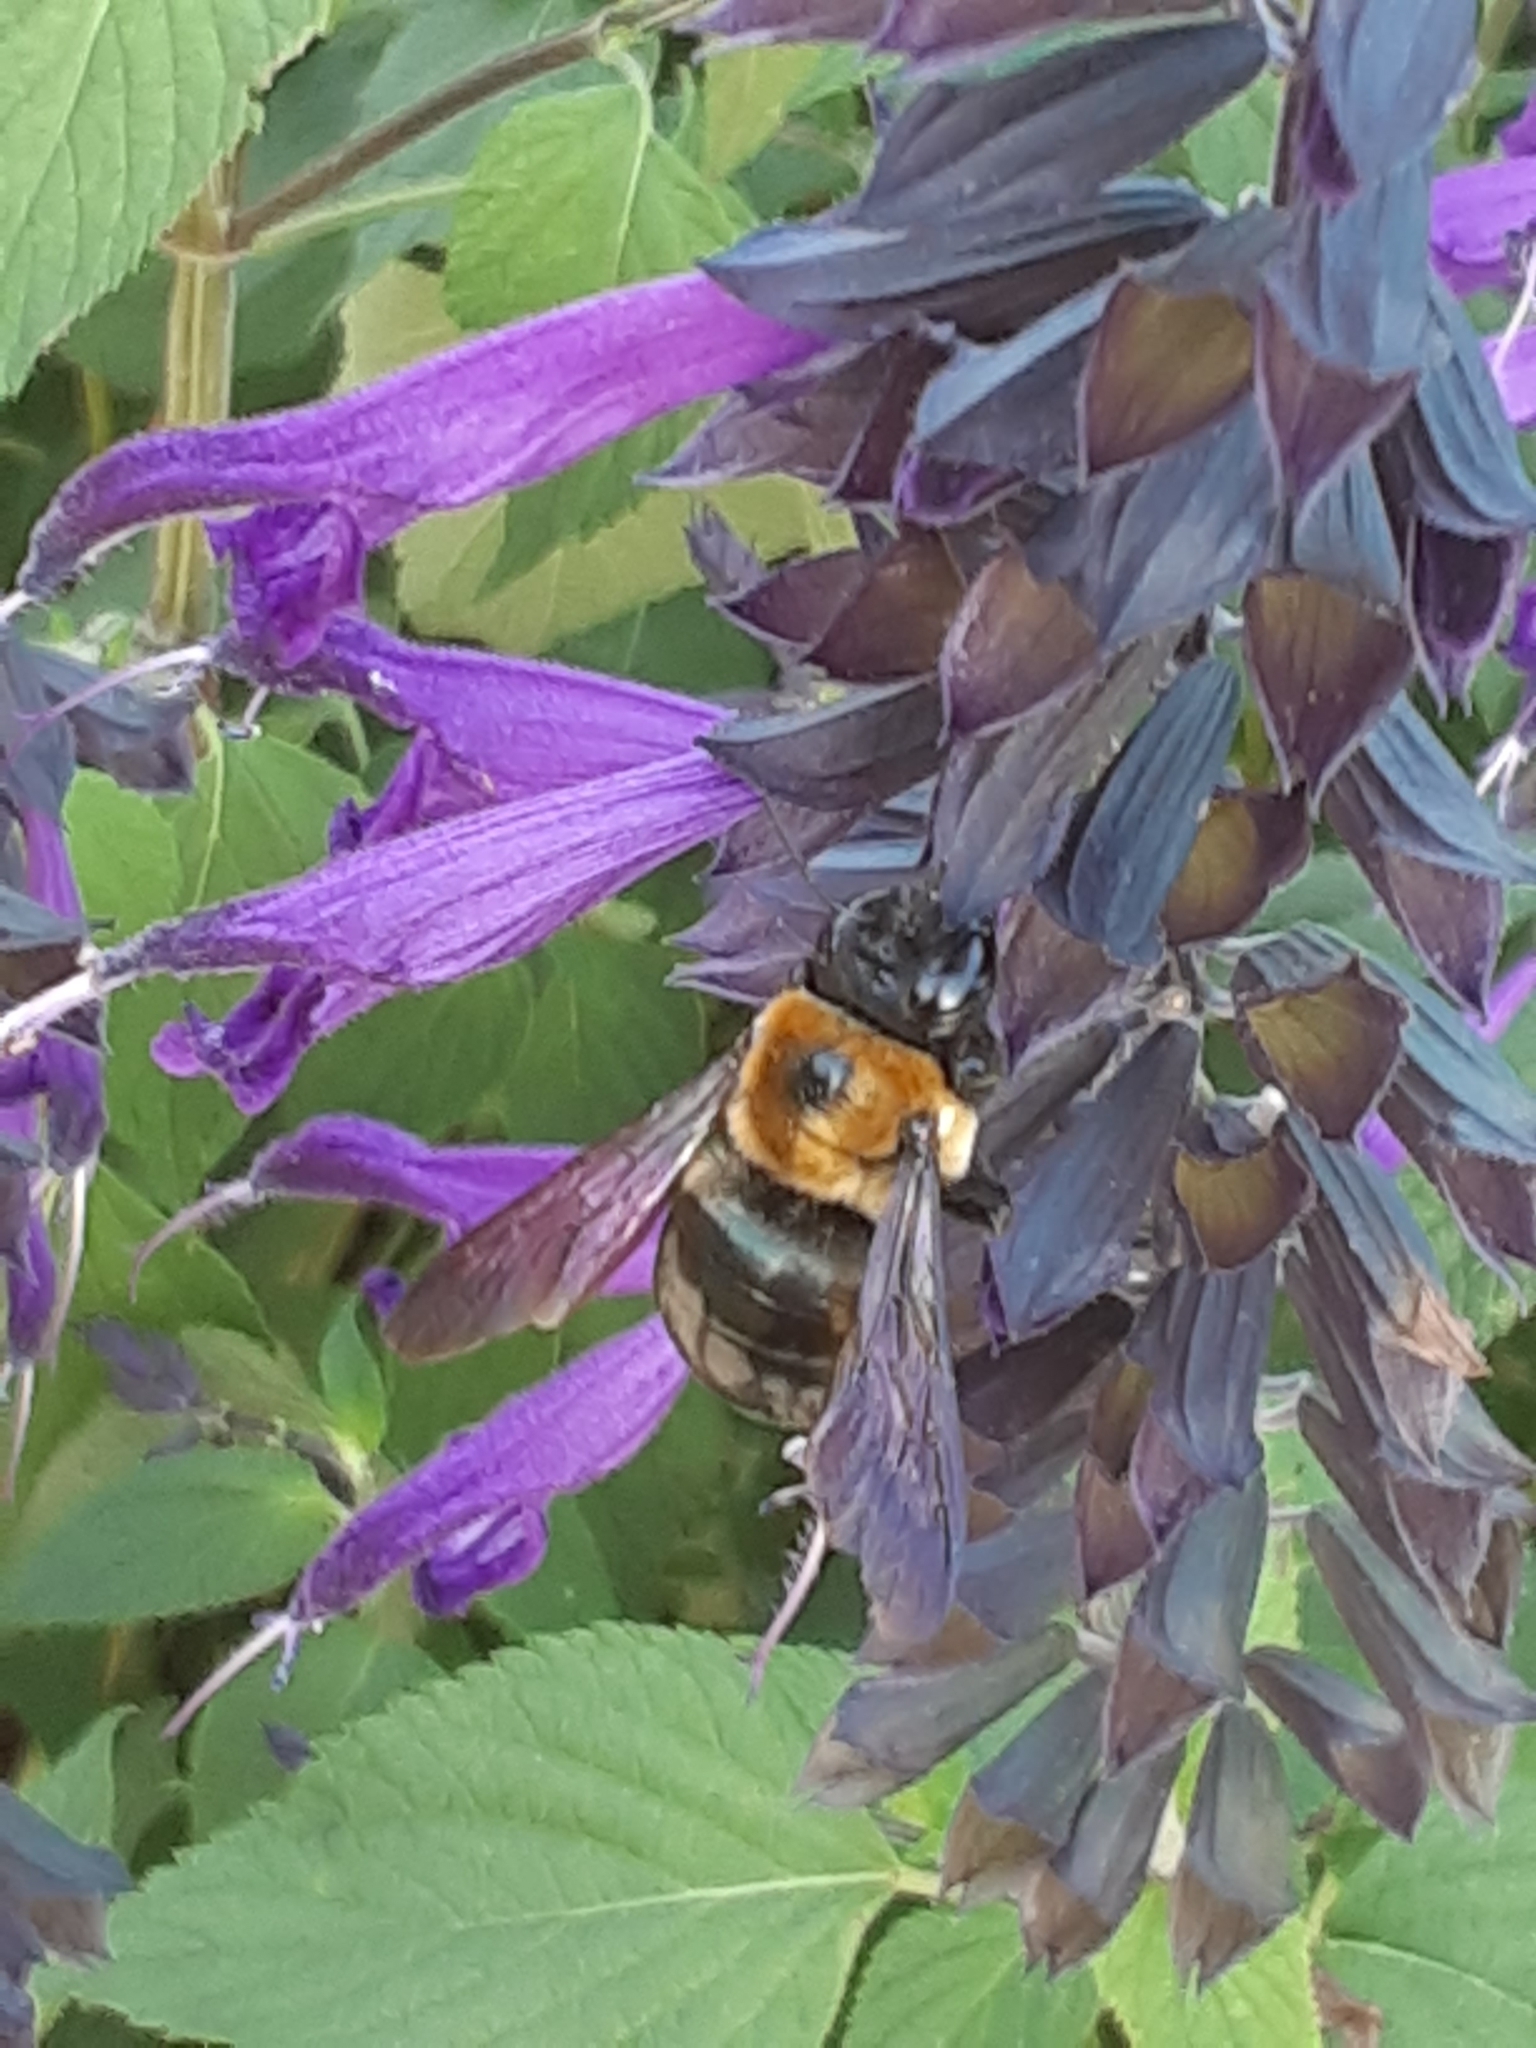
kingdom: Animalia
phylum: Arthropoda
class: Insecta
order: Hymenoptera
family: Apidae
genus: Xylocopa
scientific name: Xylocopa virginica
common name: Carpenter bee
